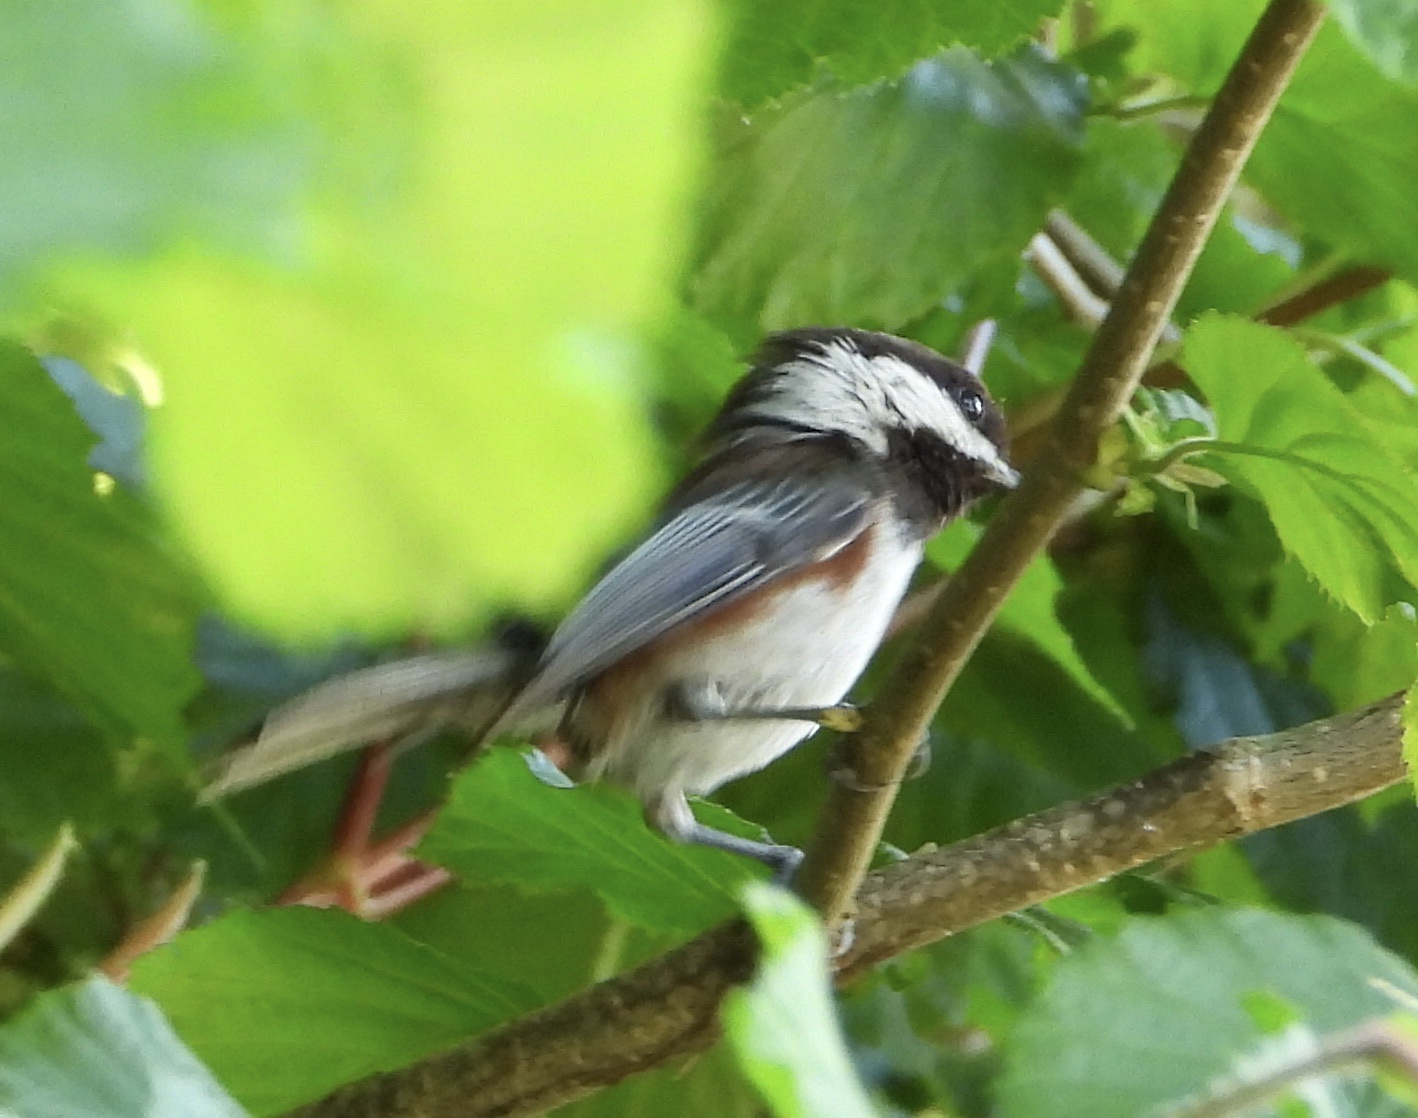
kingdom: Animalia
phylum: Chordata
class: Aves
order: Passeriformes
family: Paridae
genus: Poecile
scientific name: Poecile rufescens
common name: Chestnut-backed chickadee
